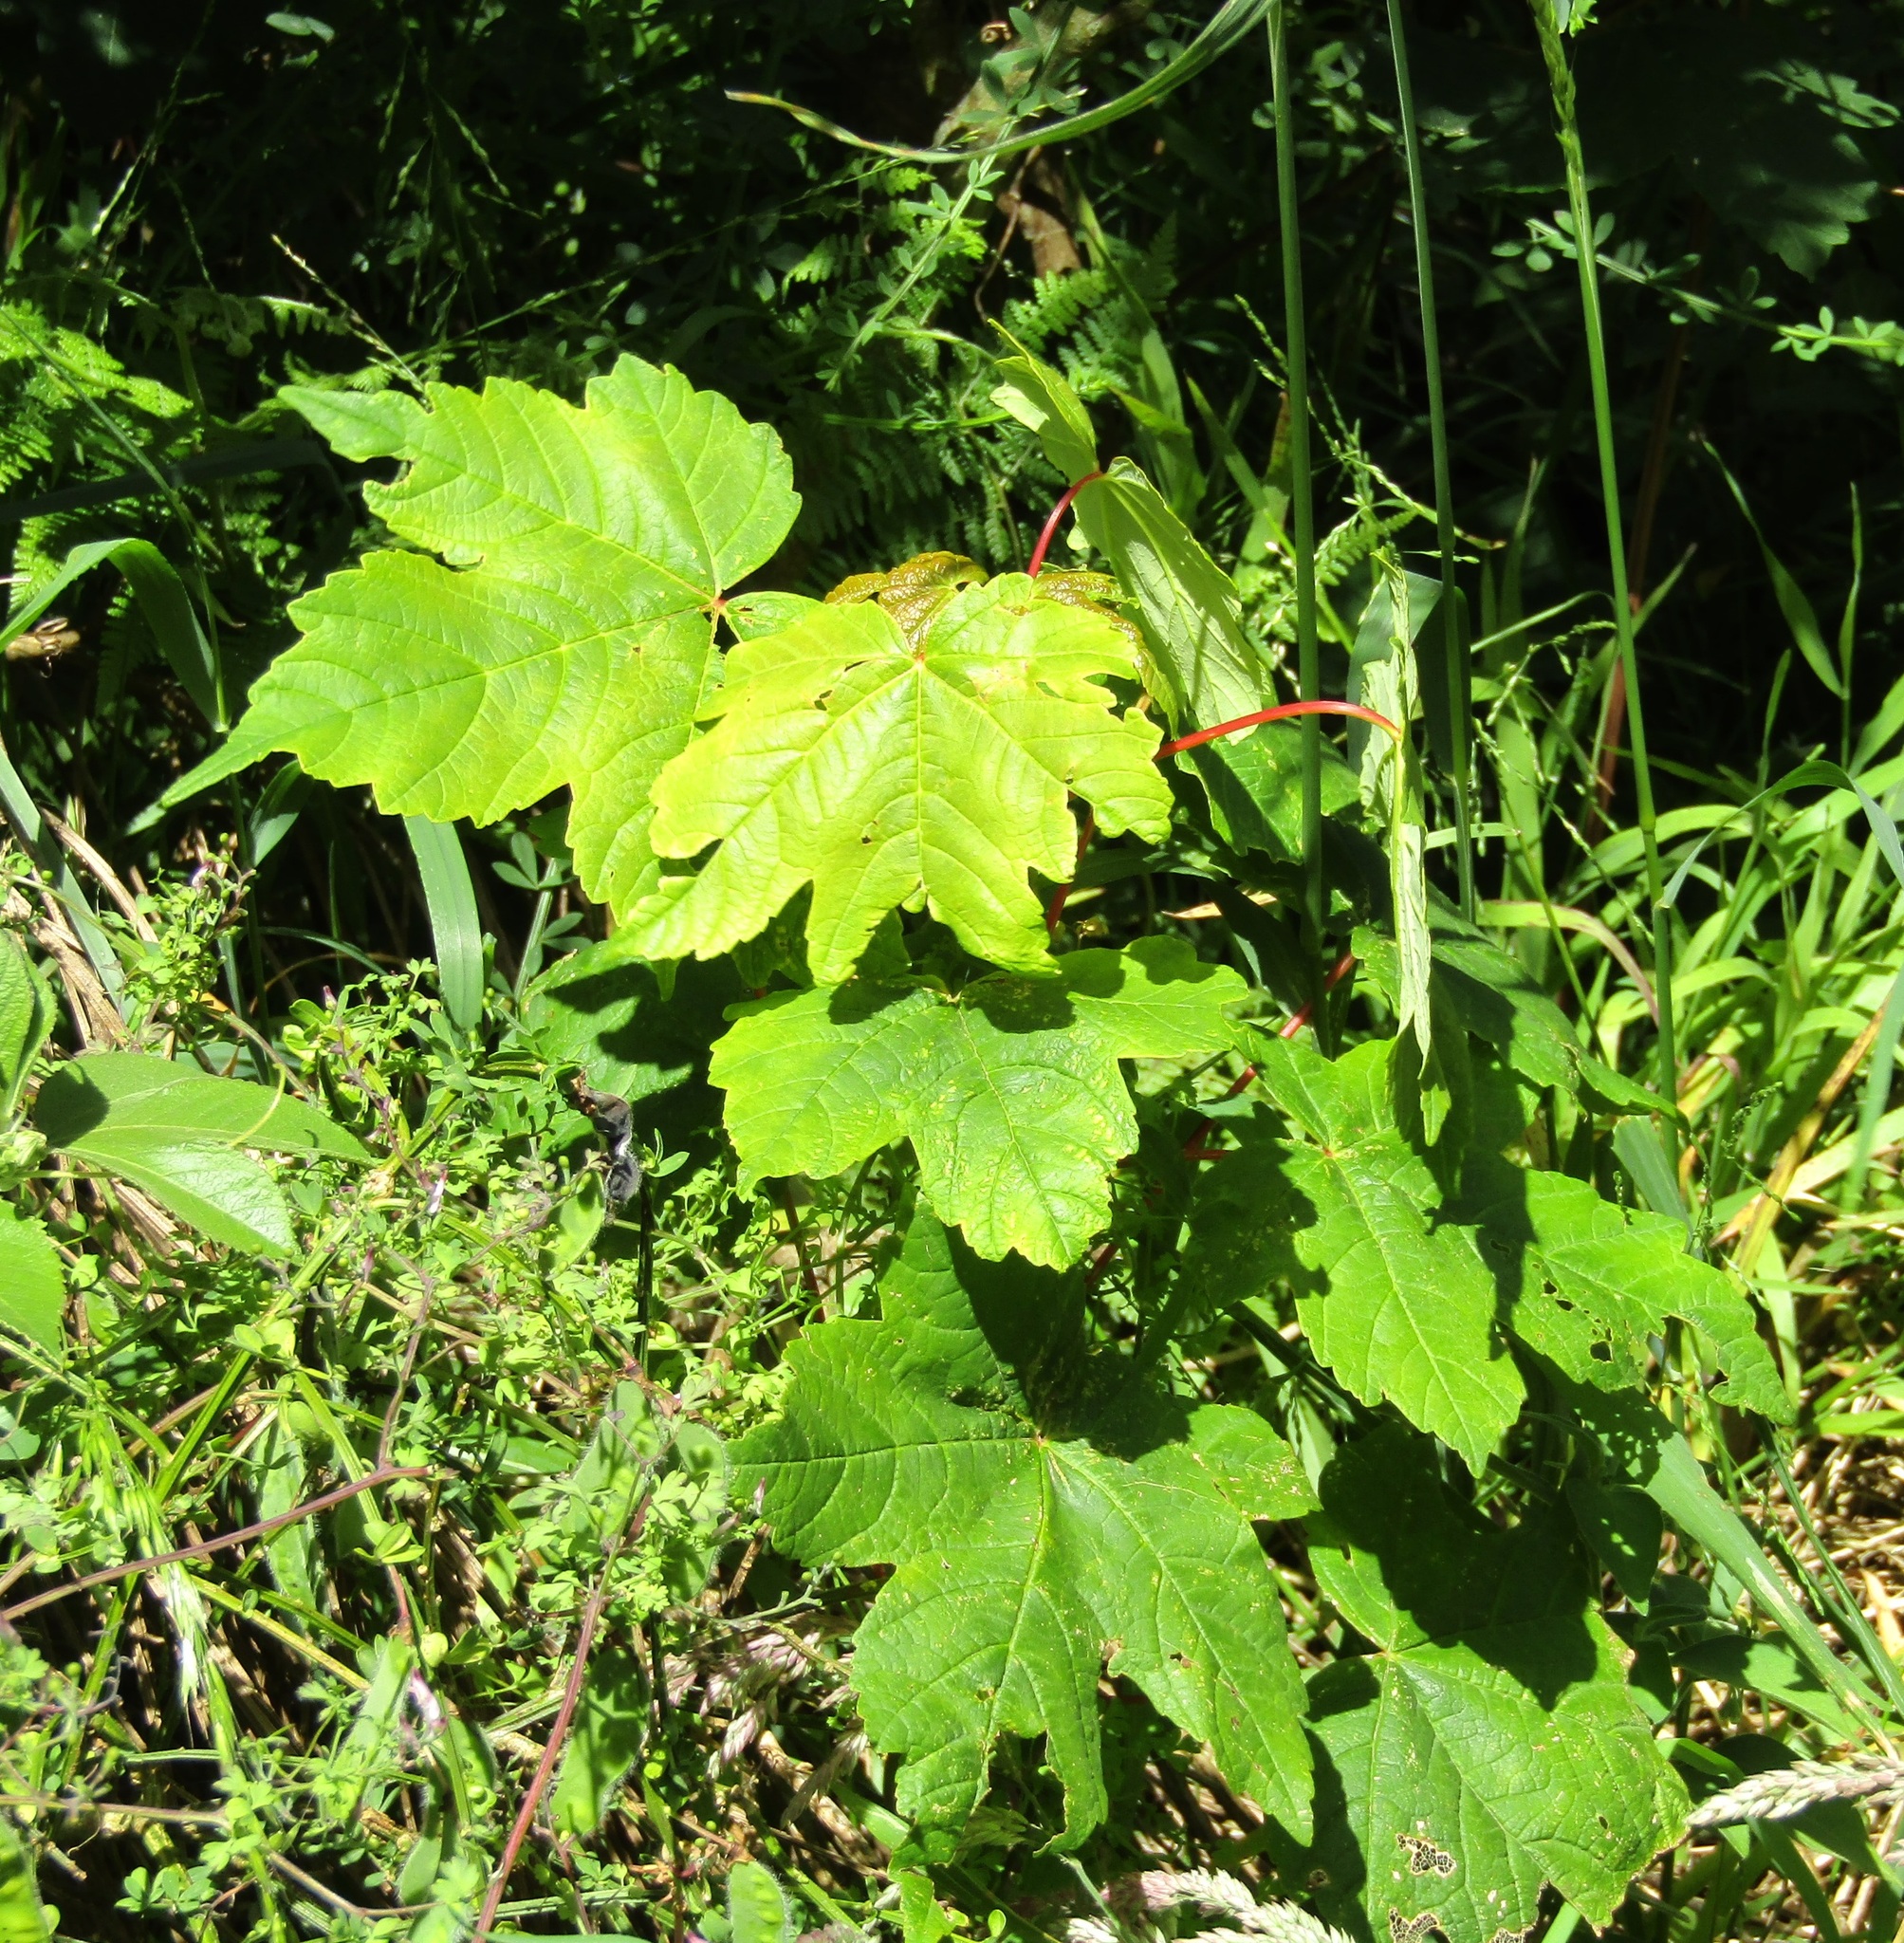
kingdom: Plantae
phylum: Tracheophyta
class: Magnoliopsida
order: Sapindales
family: Sapindaceae
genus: Acer
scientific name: Acer pseudoplatanus
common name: Sycamore
